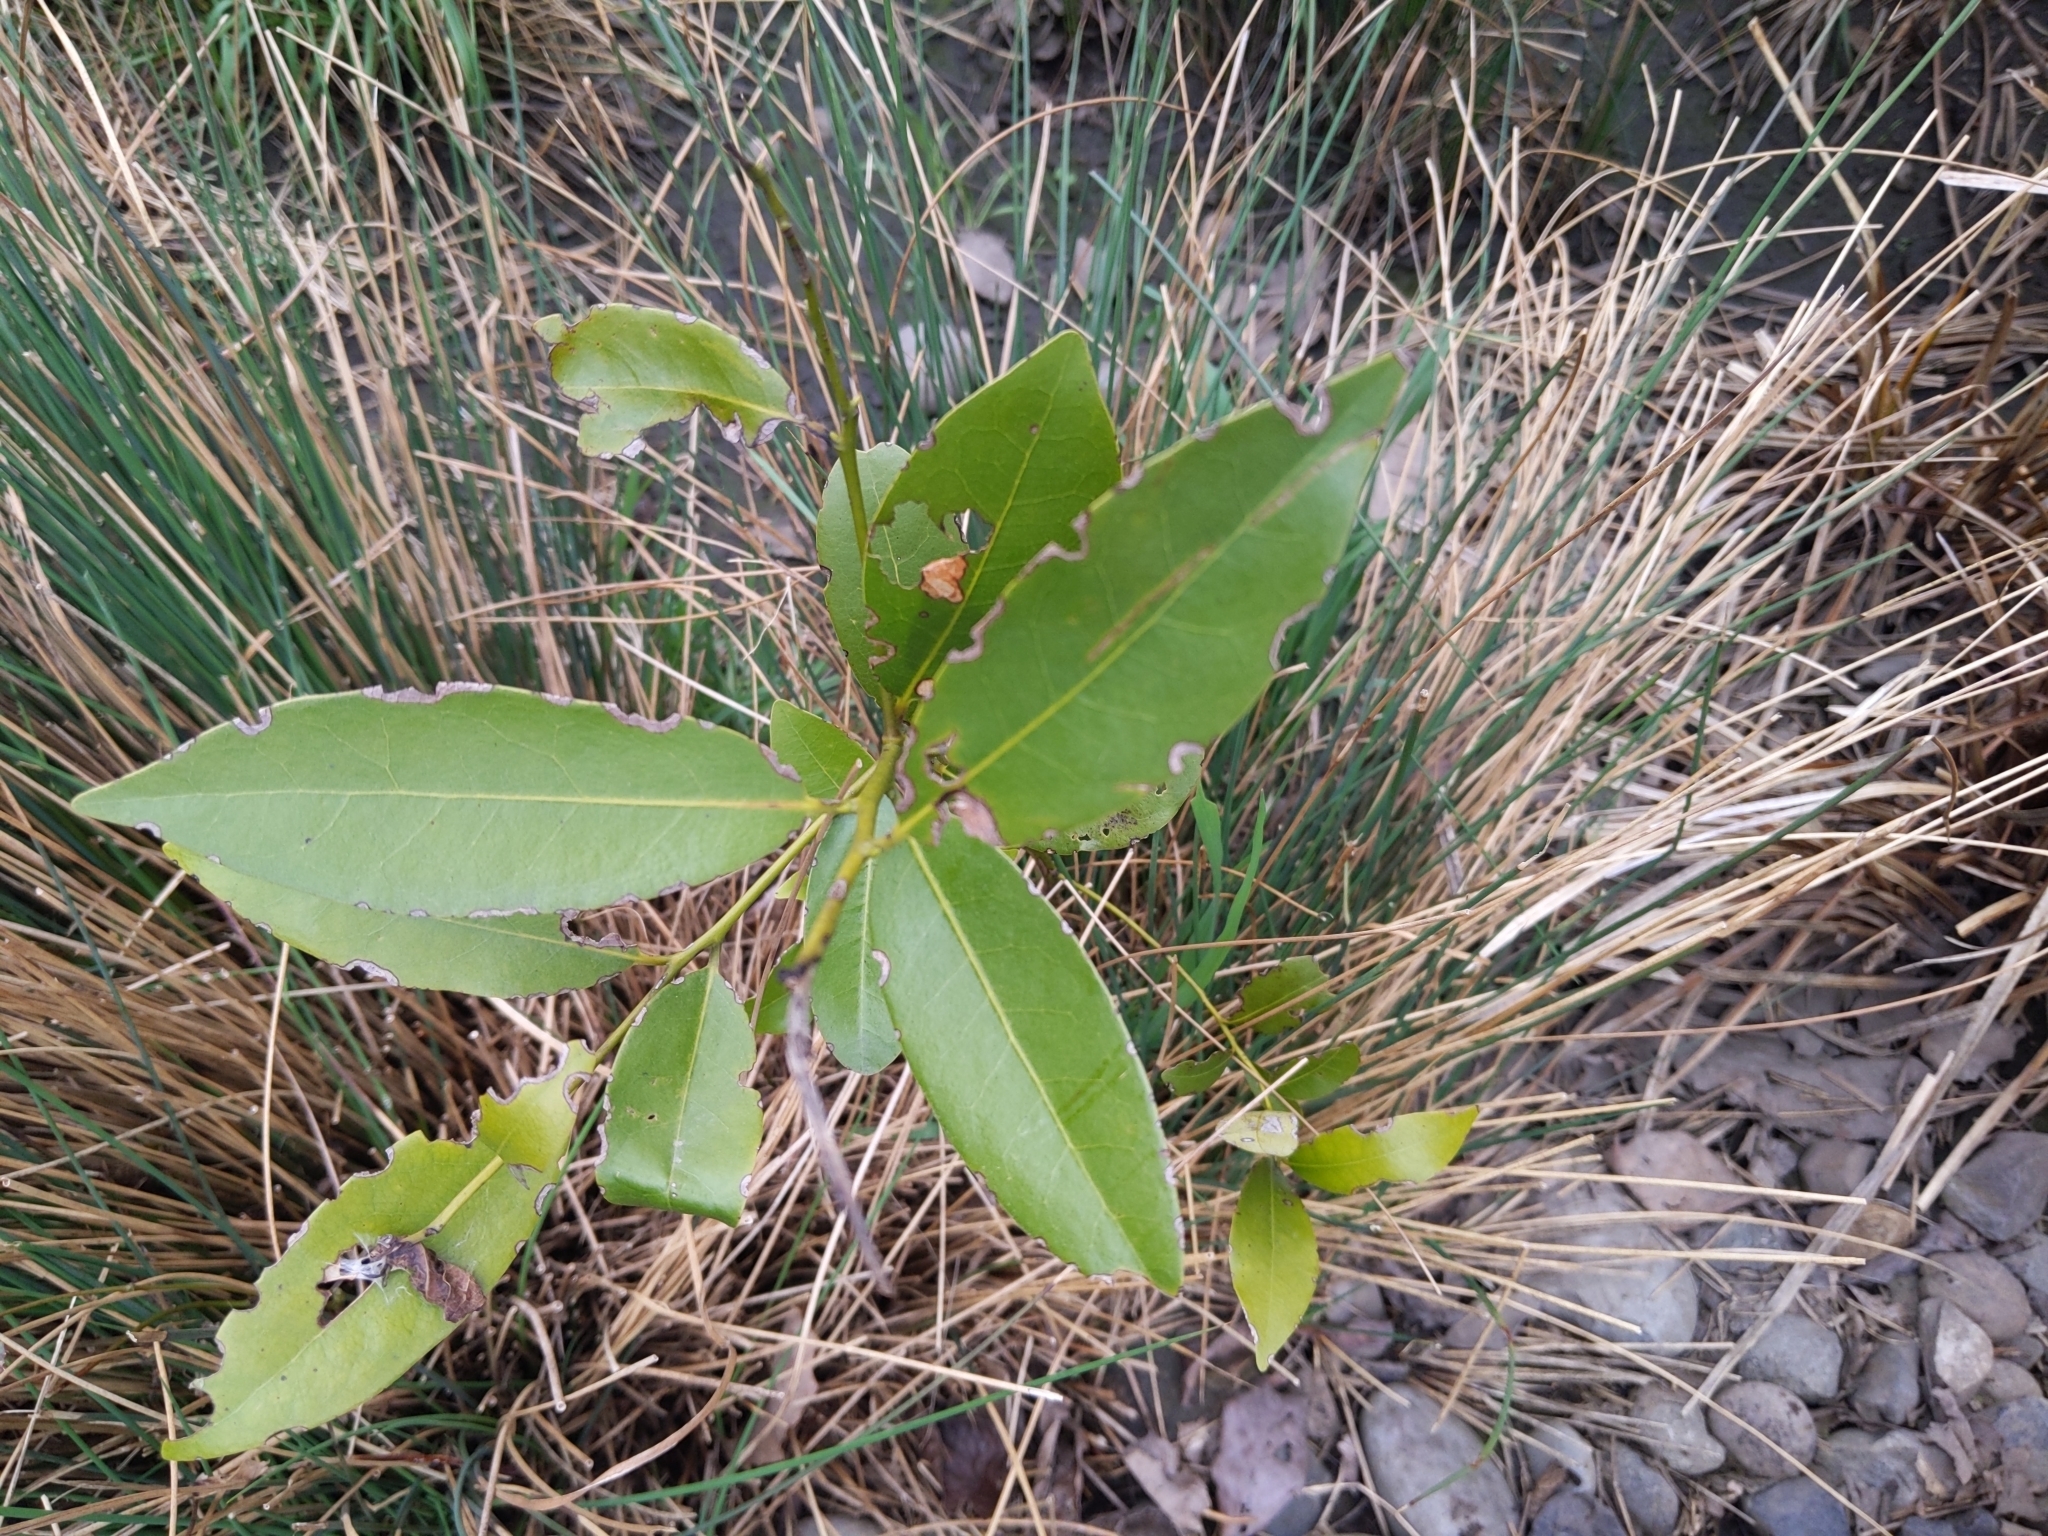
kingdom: Plantae
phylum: Tracheophyta
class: Magnoliopsida
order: Laurales
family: Lauraceae
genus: Umbellularia
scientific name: Umbellularia californica
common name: California bay
